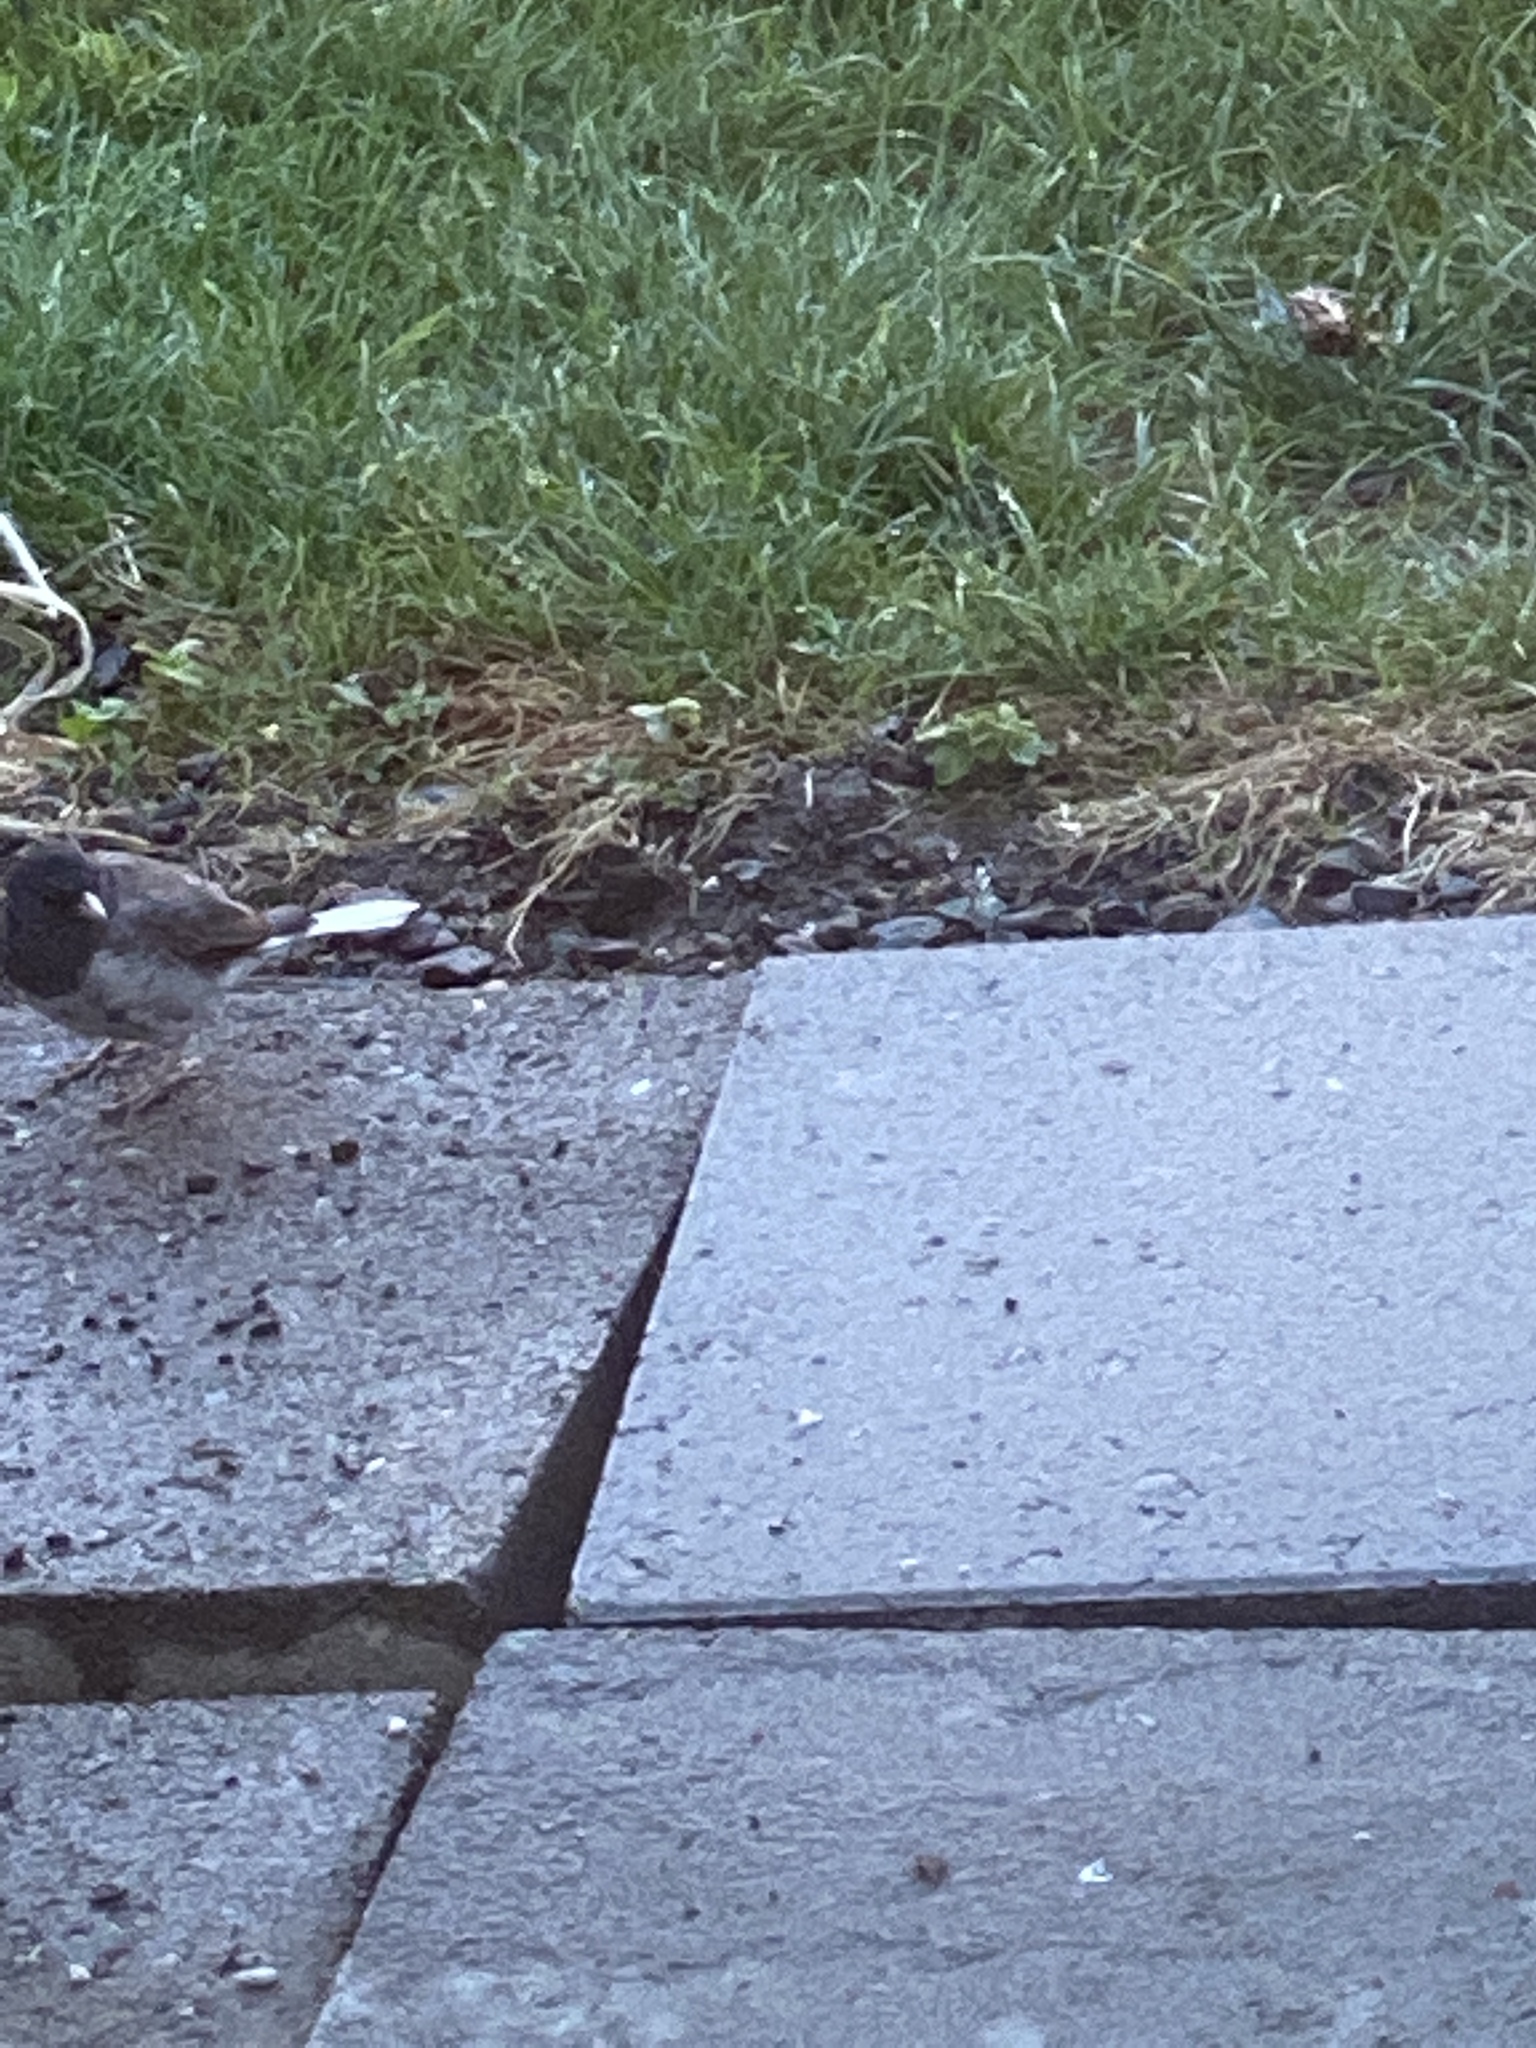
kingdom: Animalia
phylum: Chordata
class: Aves
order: Passeriformes
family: Passerellidae
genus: Junco
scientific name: Junco hyemalis
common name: Dark-eyed junco
